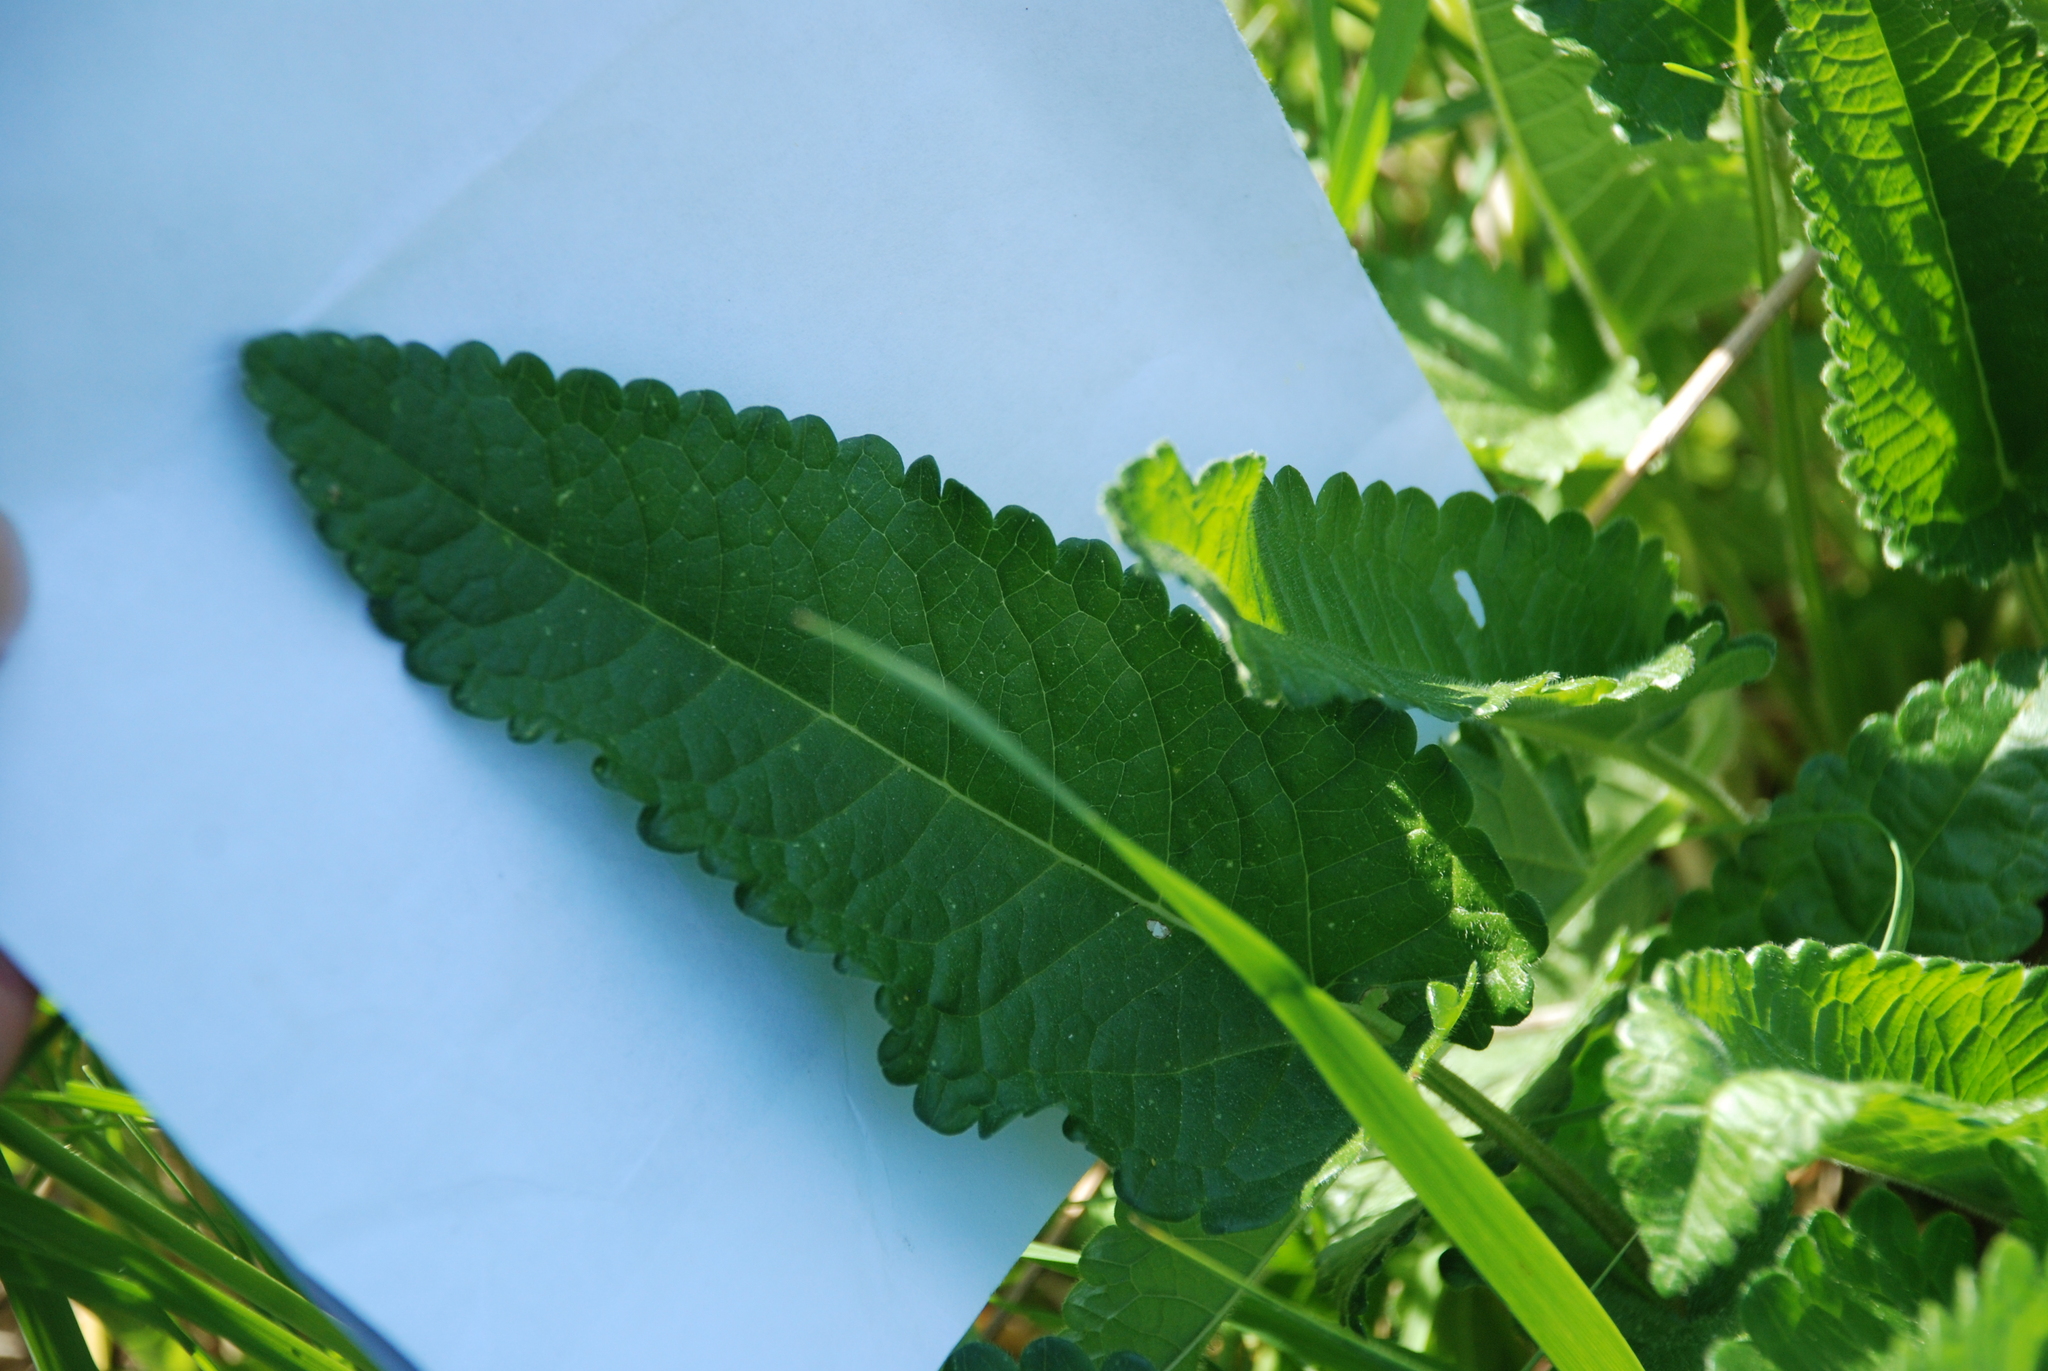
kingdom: Plantae
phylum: Tracheophyta
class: Magnoliopsida
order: Lamiales
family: Lamiaceae
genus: Betonica
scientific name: Betonica officinalis
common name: Bishop's-wort
